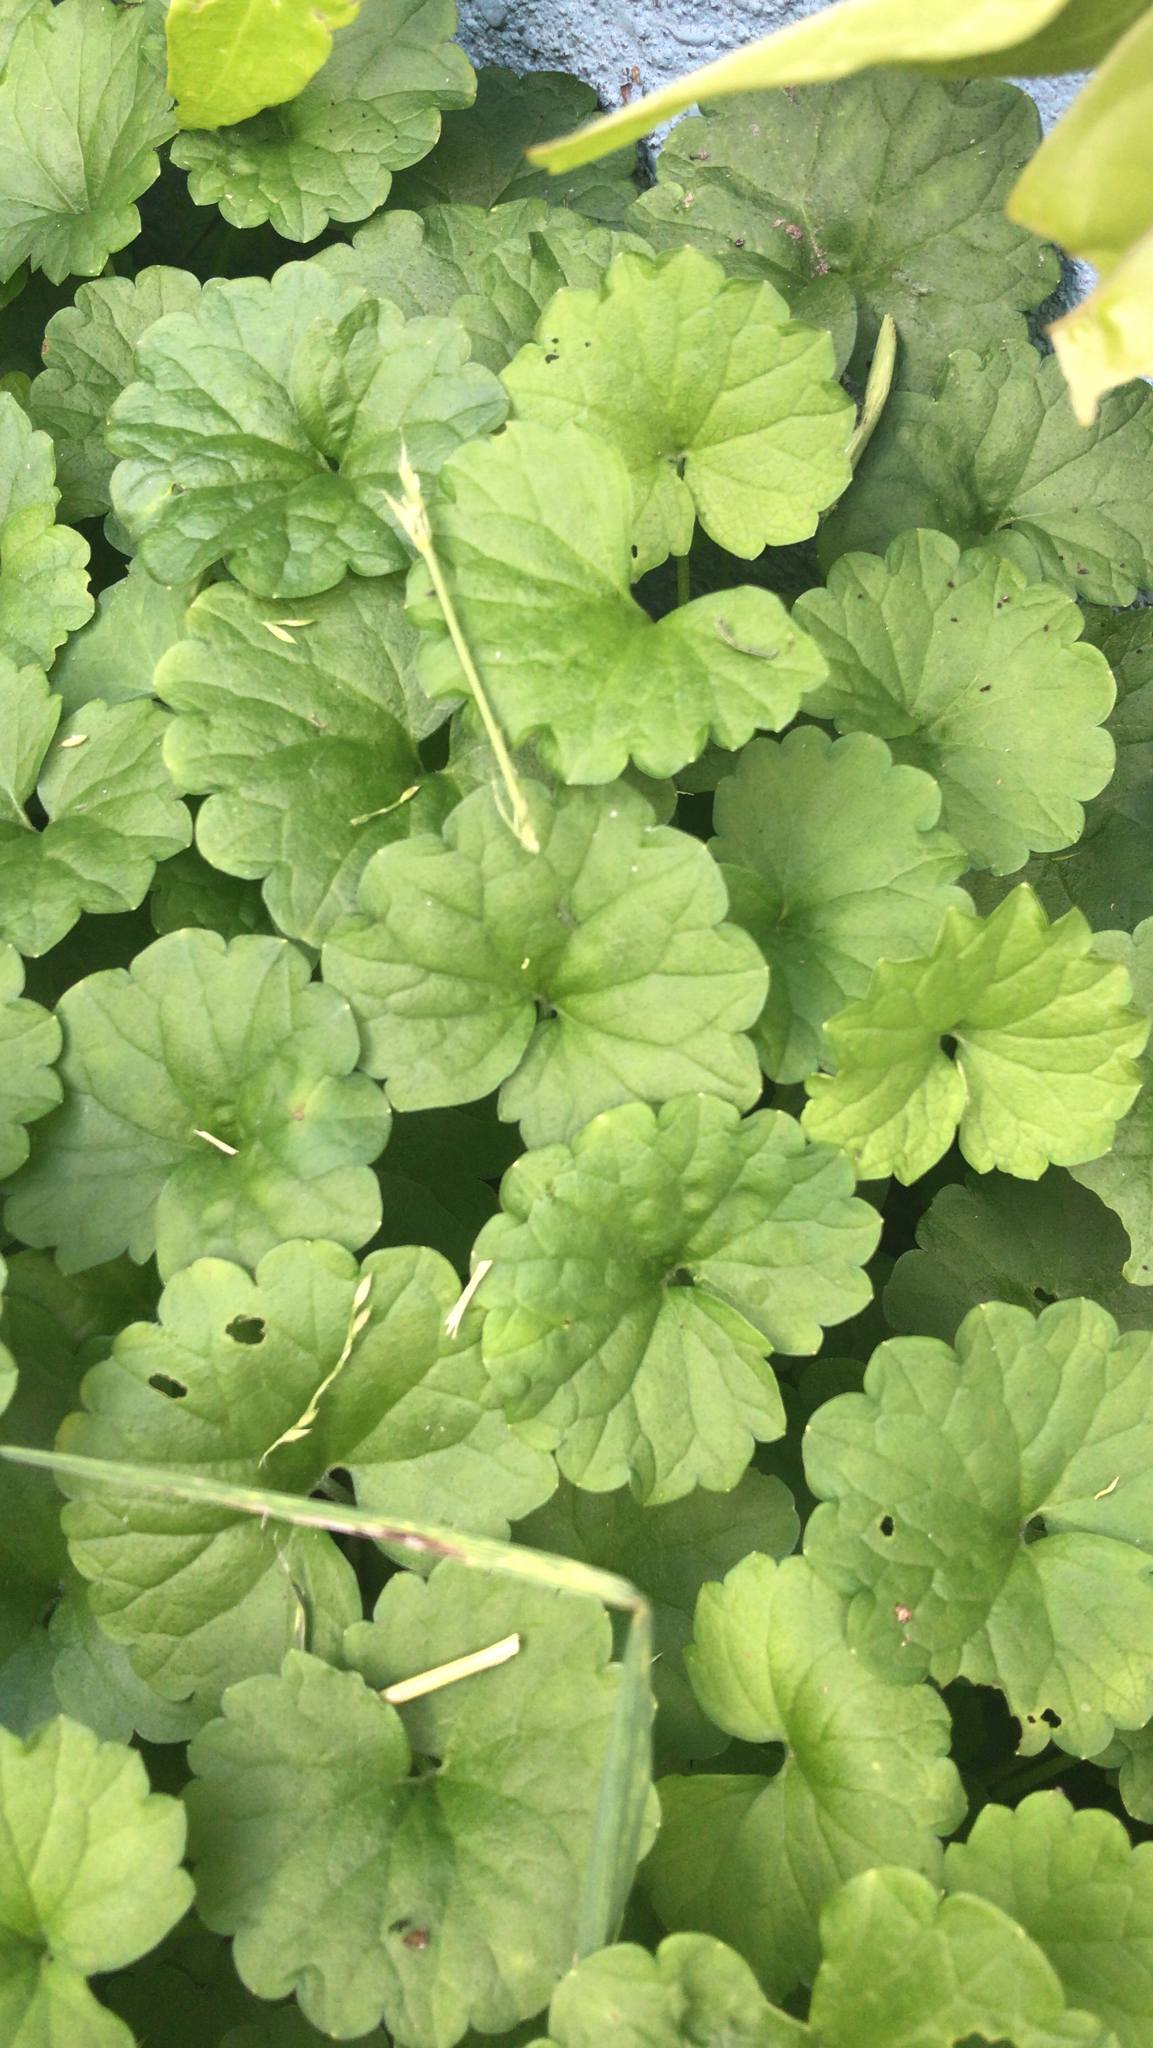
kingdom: Plantae
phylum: Tracheophyta
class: Magnoliopsida
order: Lamiales
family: Lamiaceae
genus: Glechoma
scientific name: Glechoma hederacea
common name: Ground ivy
